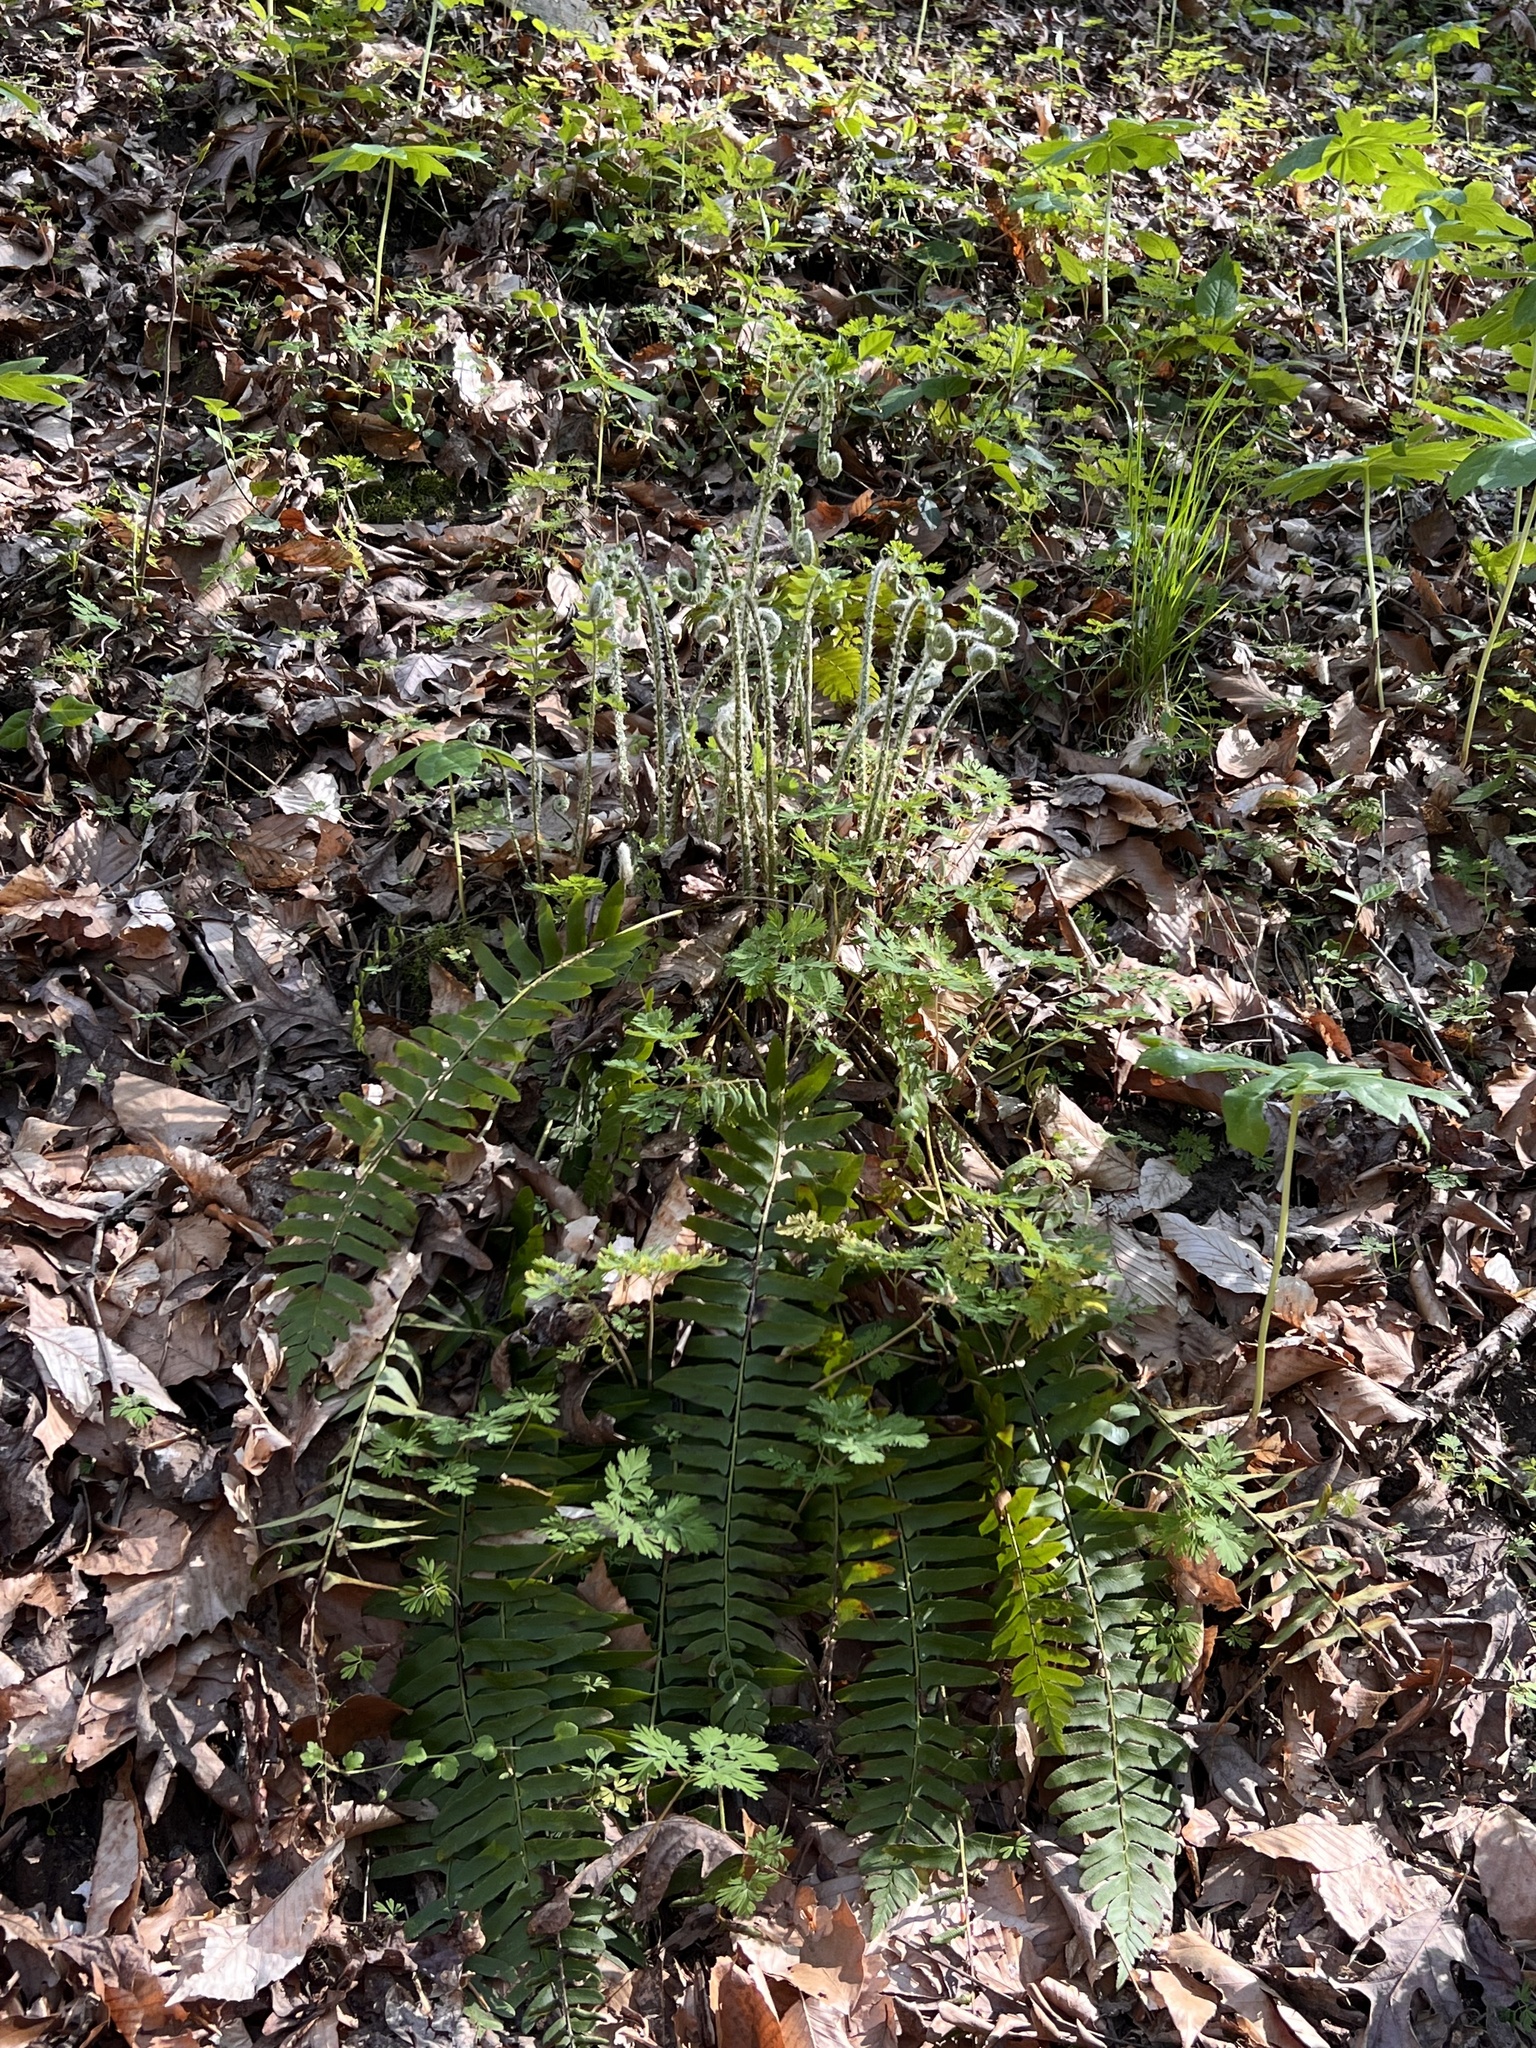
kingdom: Plantae
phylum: Tracheophyta
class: Polypodiopsida
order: Polypodiales
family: Dryopteridaceae
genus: Polystichum
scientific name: Polystichum acrostichoides
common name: Christmas fern
